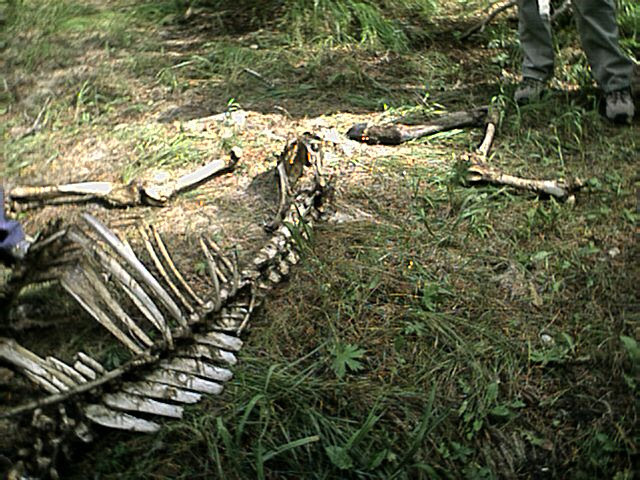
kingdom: Animalia
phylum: Chordata
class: Mammalia
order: Artiodactyla
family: Cervidae
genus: Cervus
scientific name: Cervus elaphus
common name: Red deer
